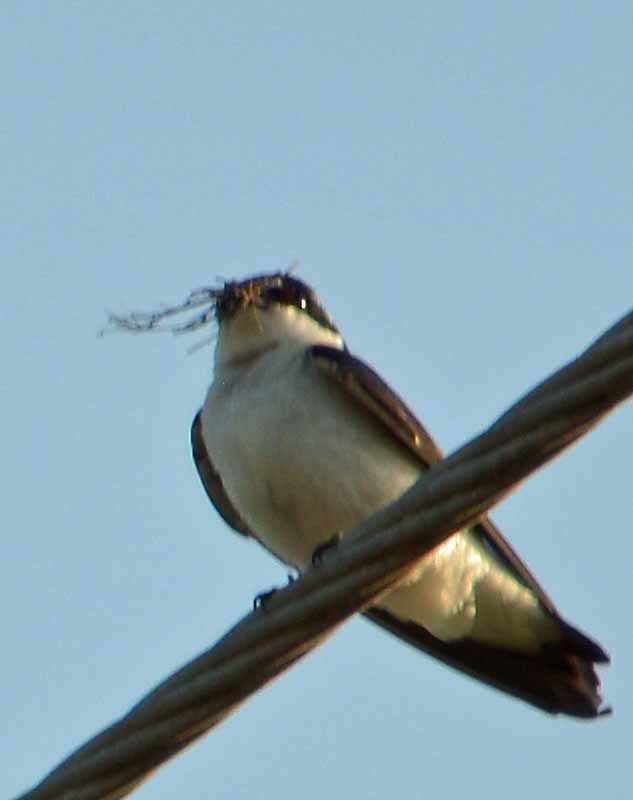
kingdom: Animalia
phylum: Chordata
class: Aves
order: Passeriformes
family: Hirundinidae
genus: Tachycineta
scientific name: Tachycineta albilinea
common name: Mangrove swallow
